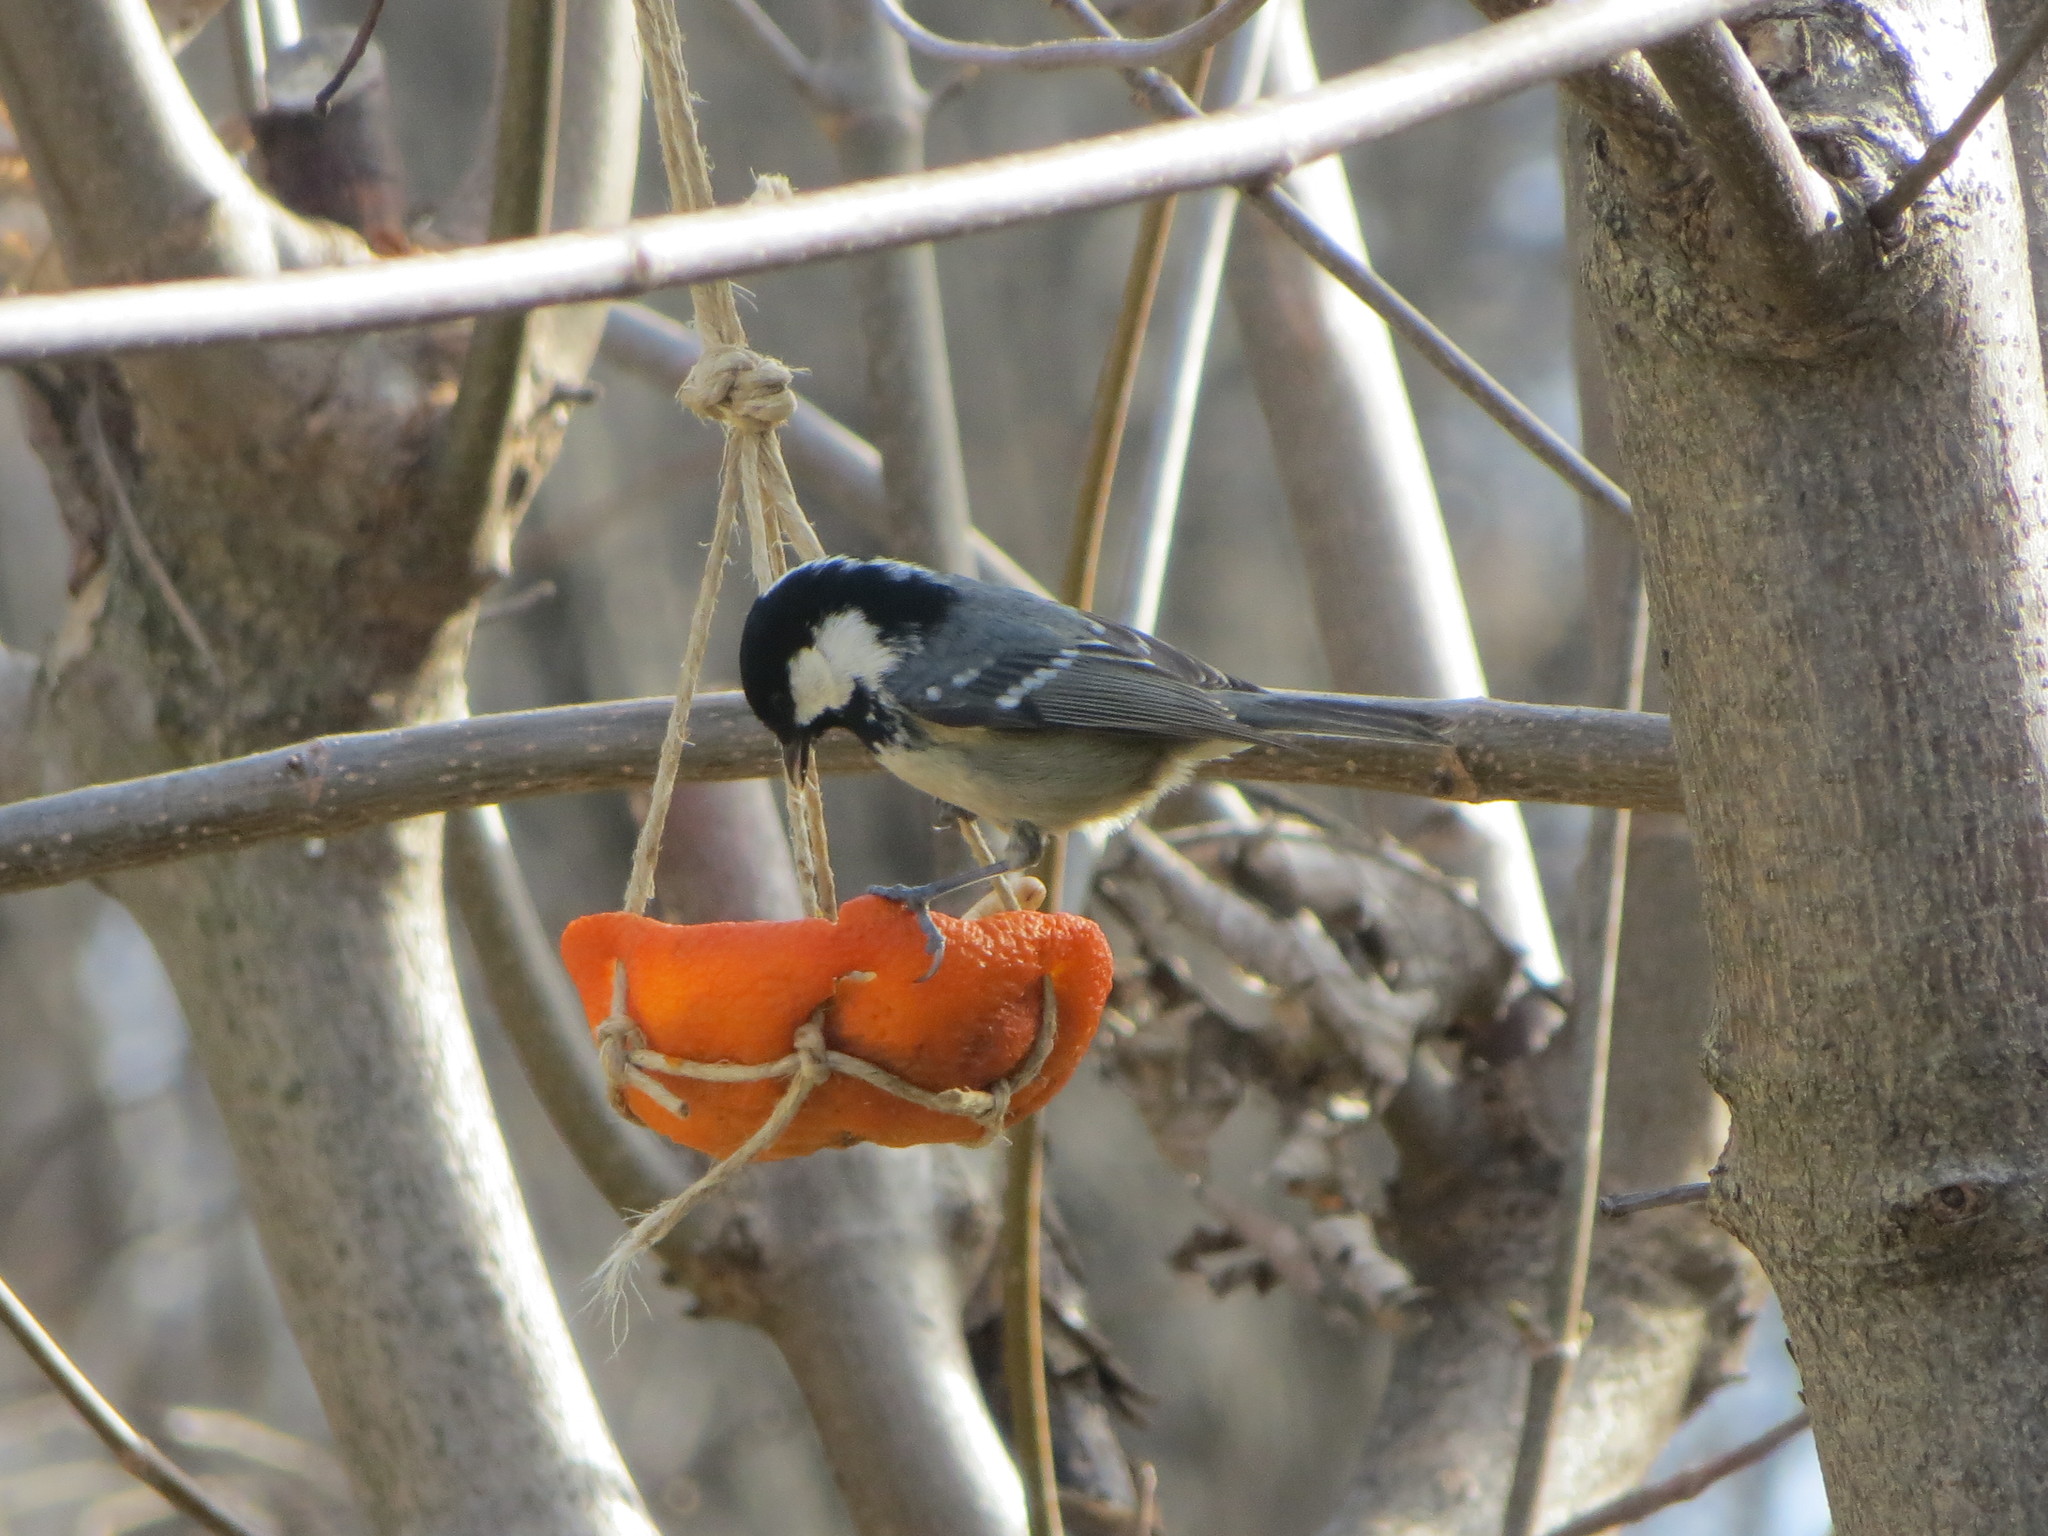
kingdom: Animalia
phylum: Chordata
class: Aves
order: Passeriformes
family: Paridae
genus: Periparus
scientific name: Periparus ater
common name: Coal tit
